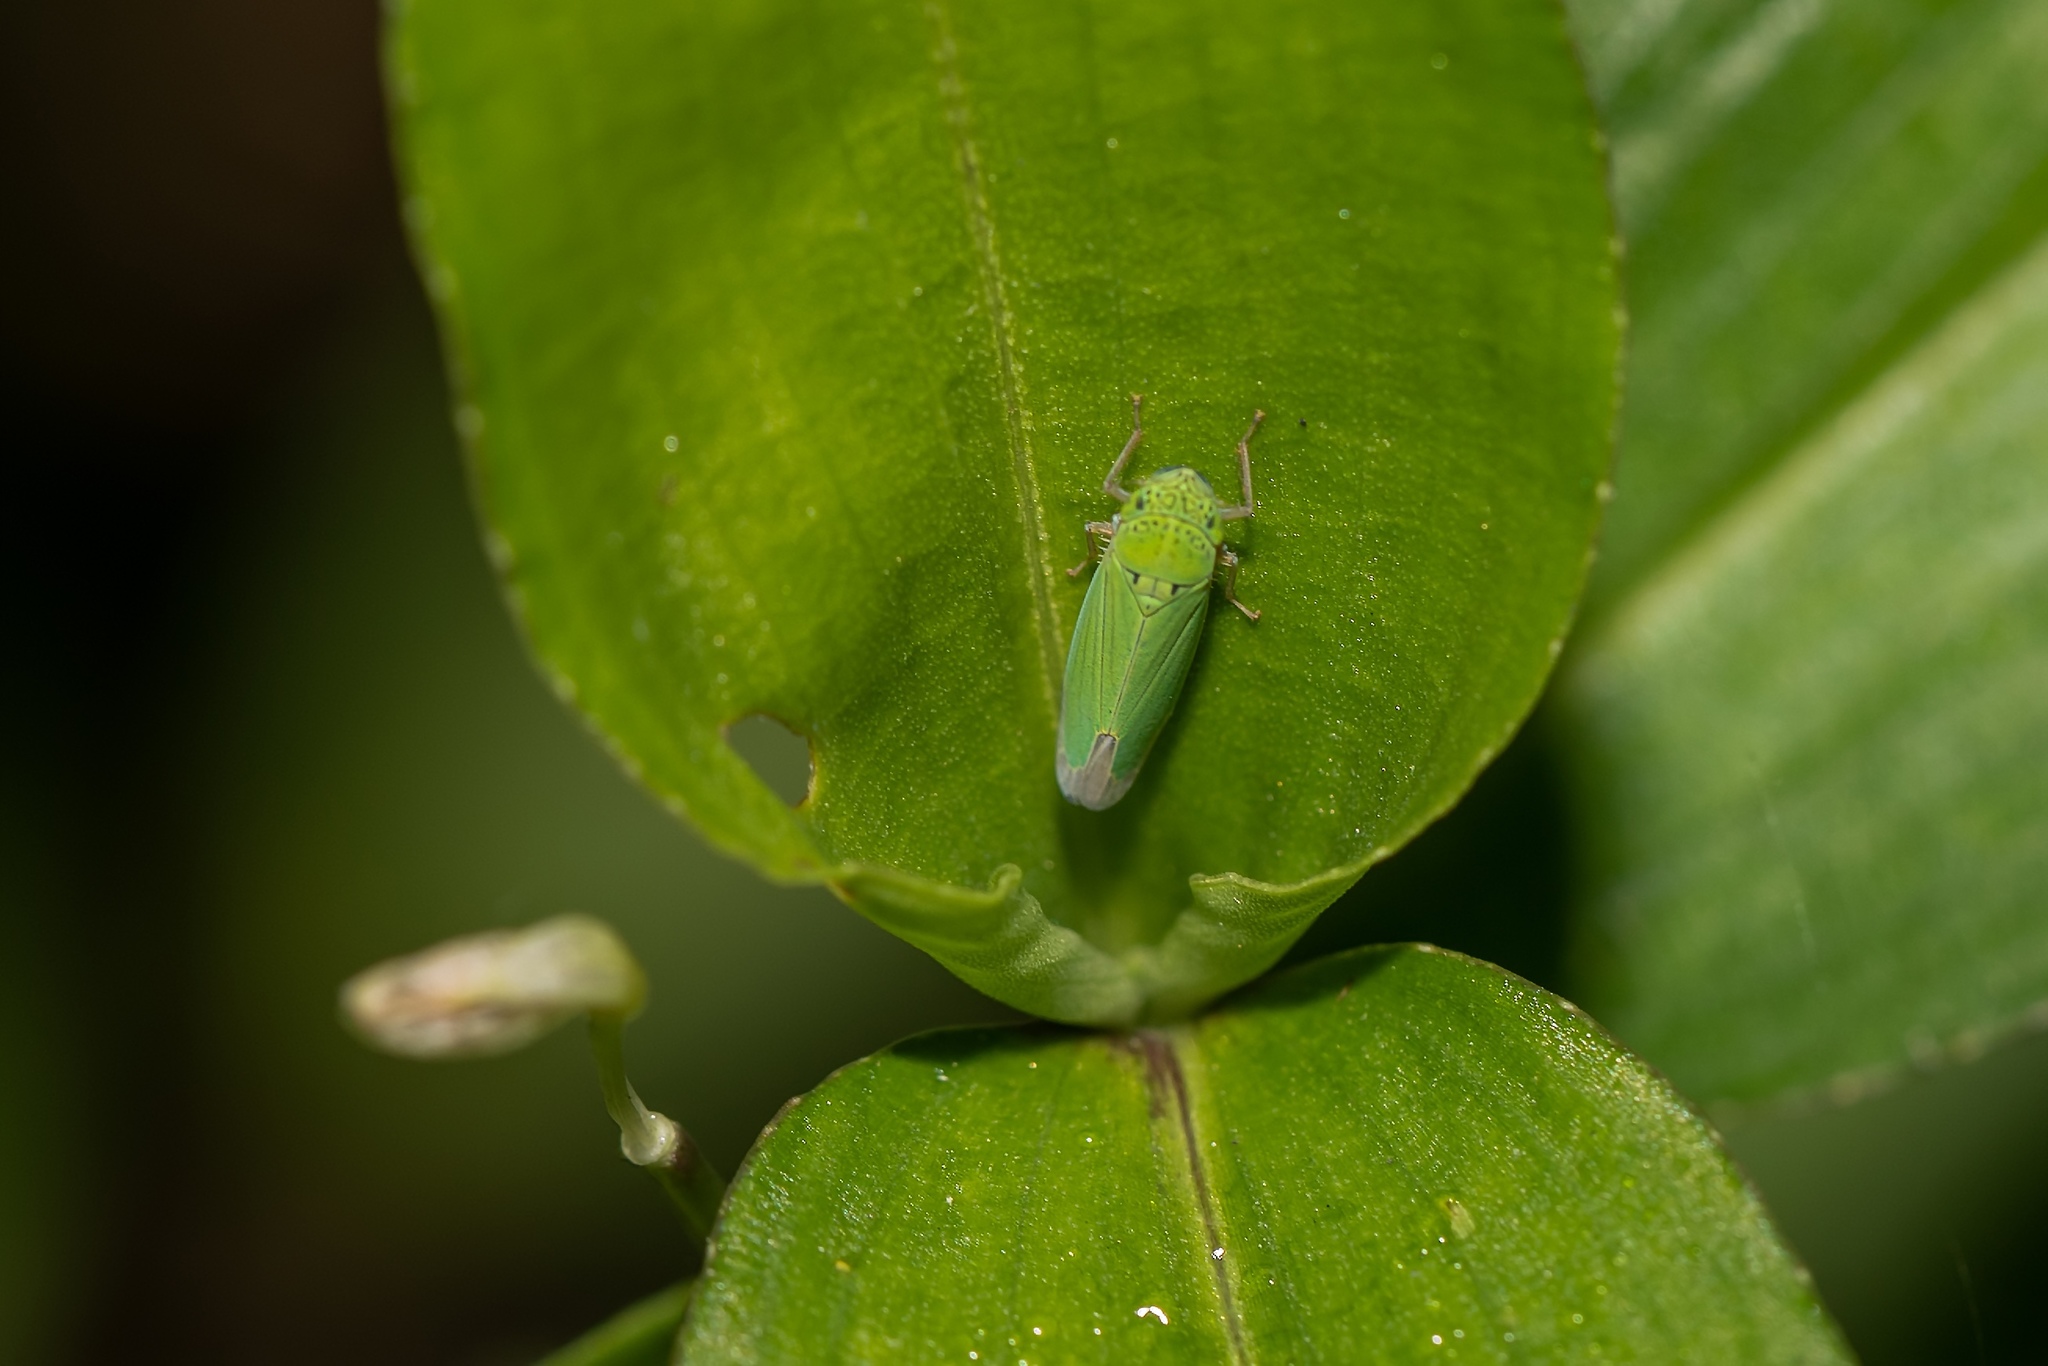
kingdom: Animalia
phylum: Arthropoda
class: Insecta
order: Hemiptera
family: Cicadellidae
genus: Hortensia
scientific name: Hortensia similis
